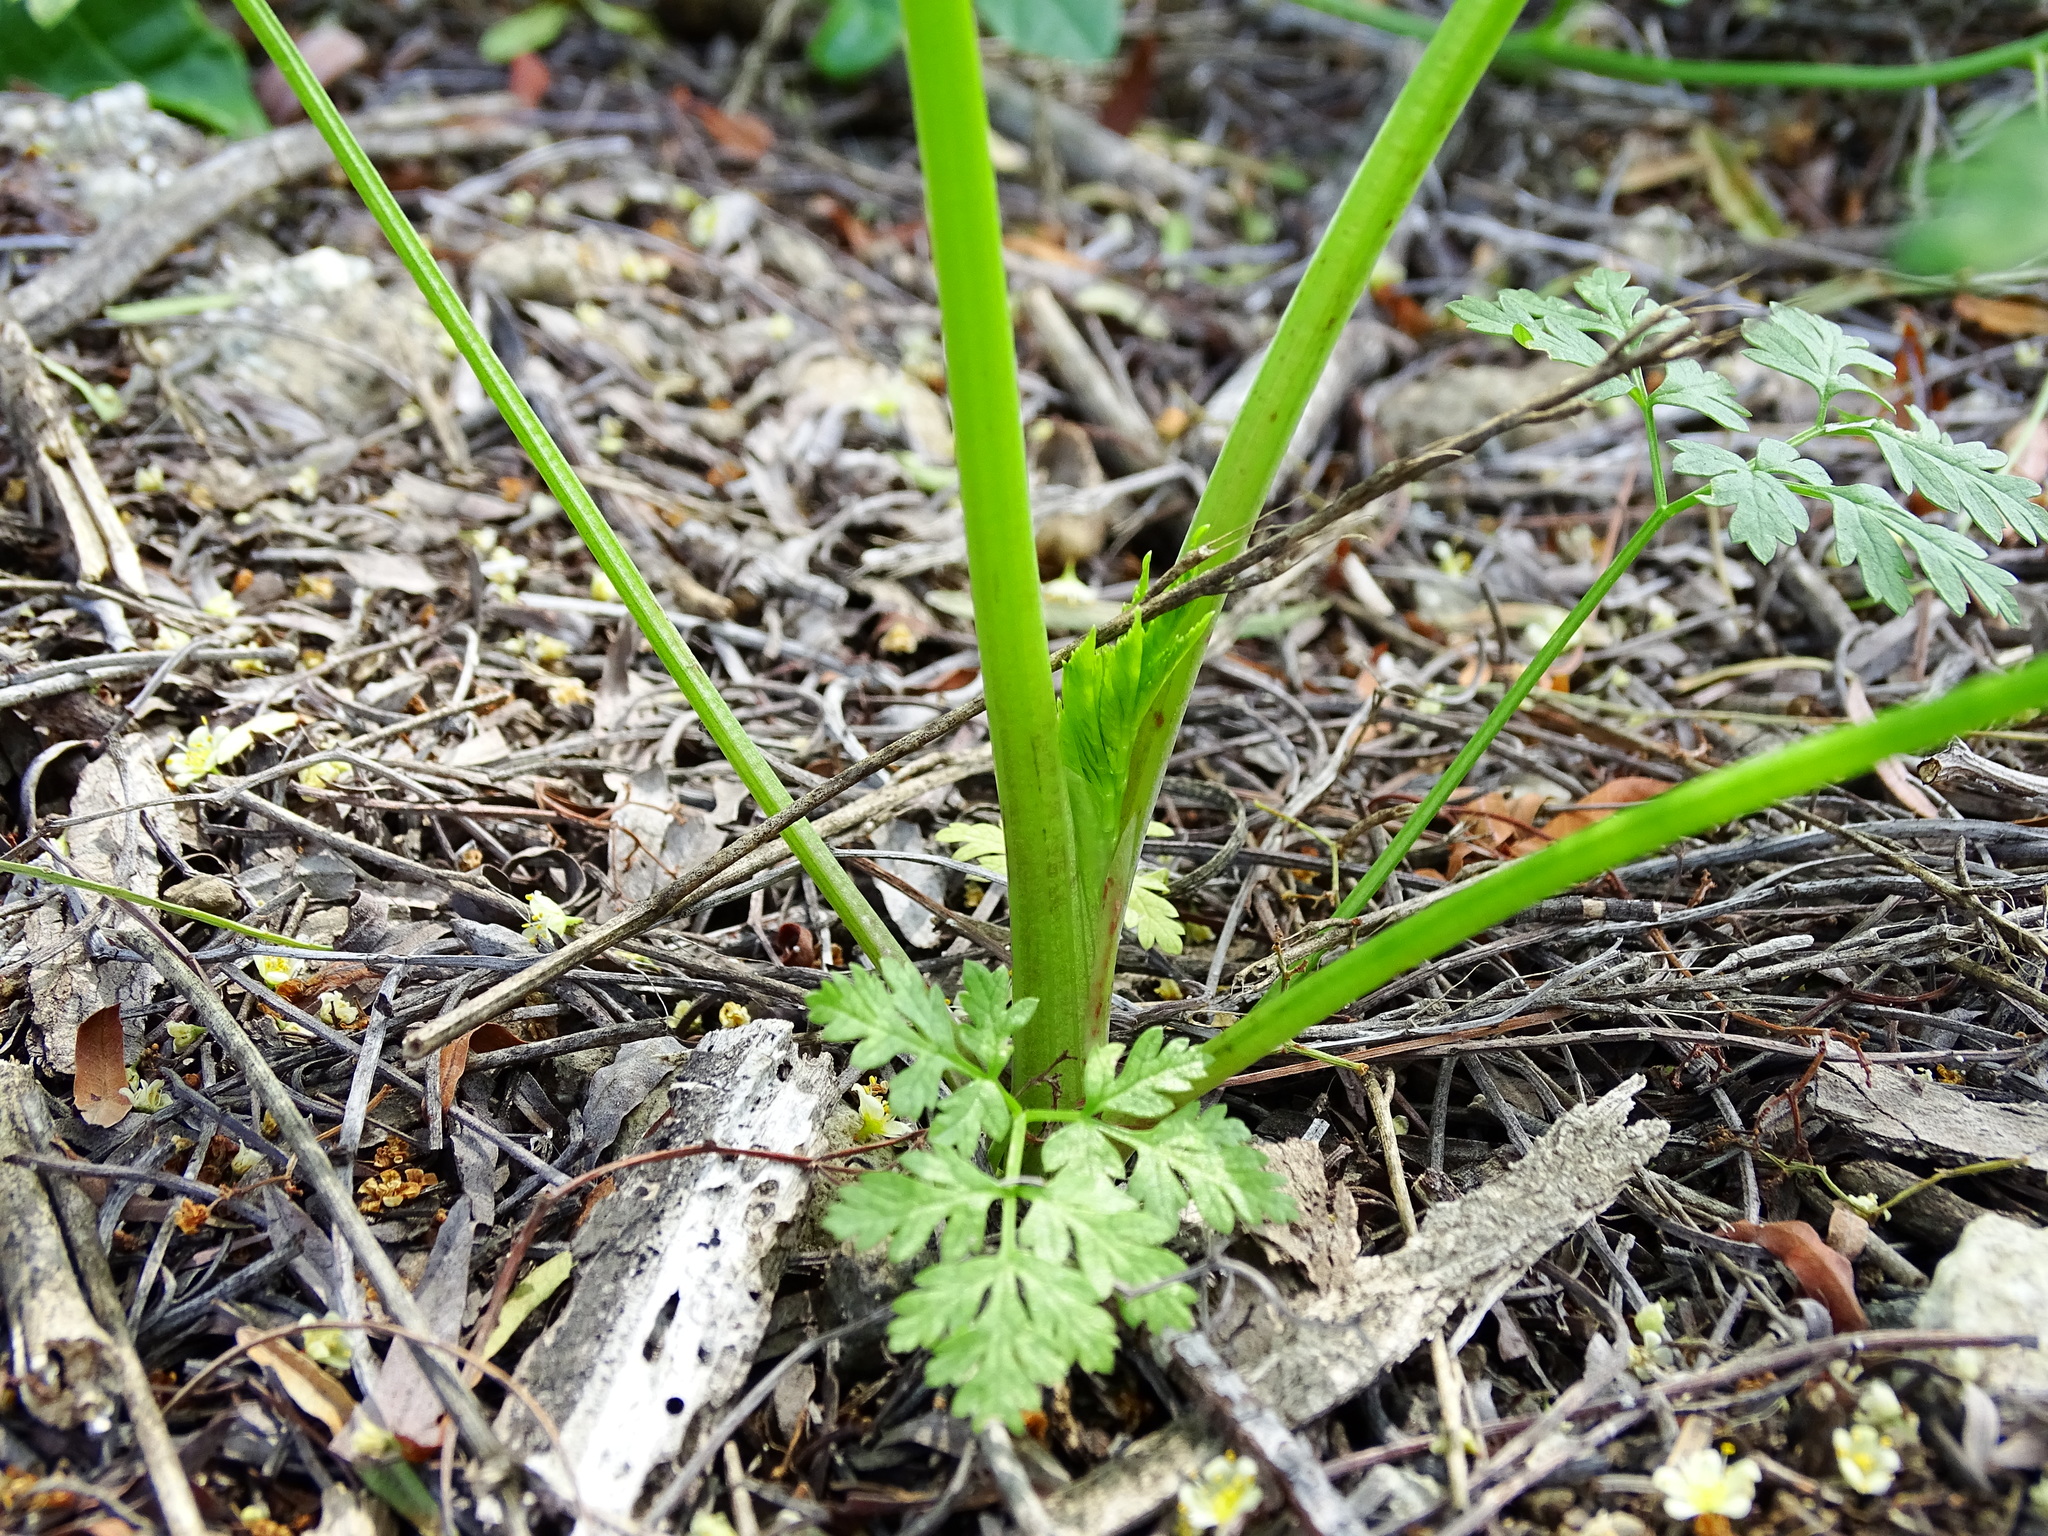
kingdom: Plantae
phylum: Tracheophyta
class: Magnoliopsida
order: Apiales
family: Apiaceae
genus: Conium
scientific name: Conium maculatum
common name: Hemlock
